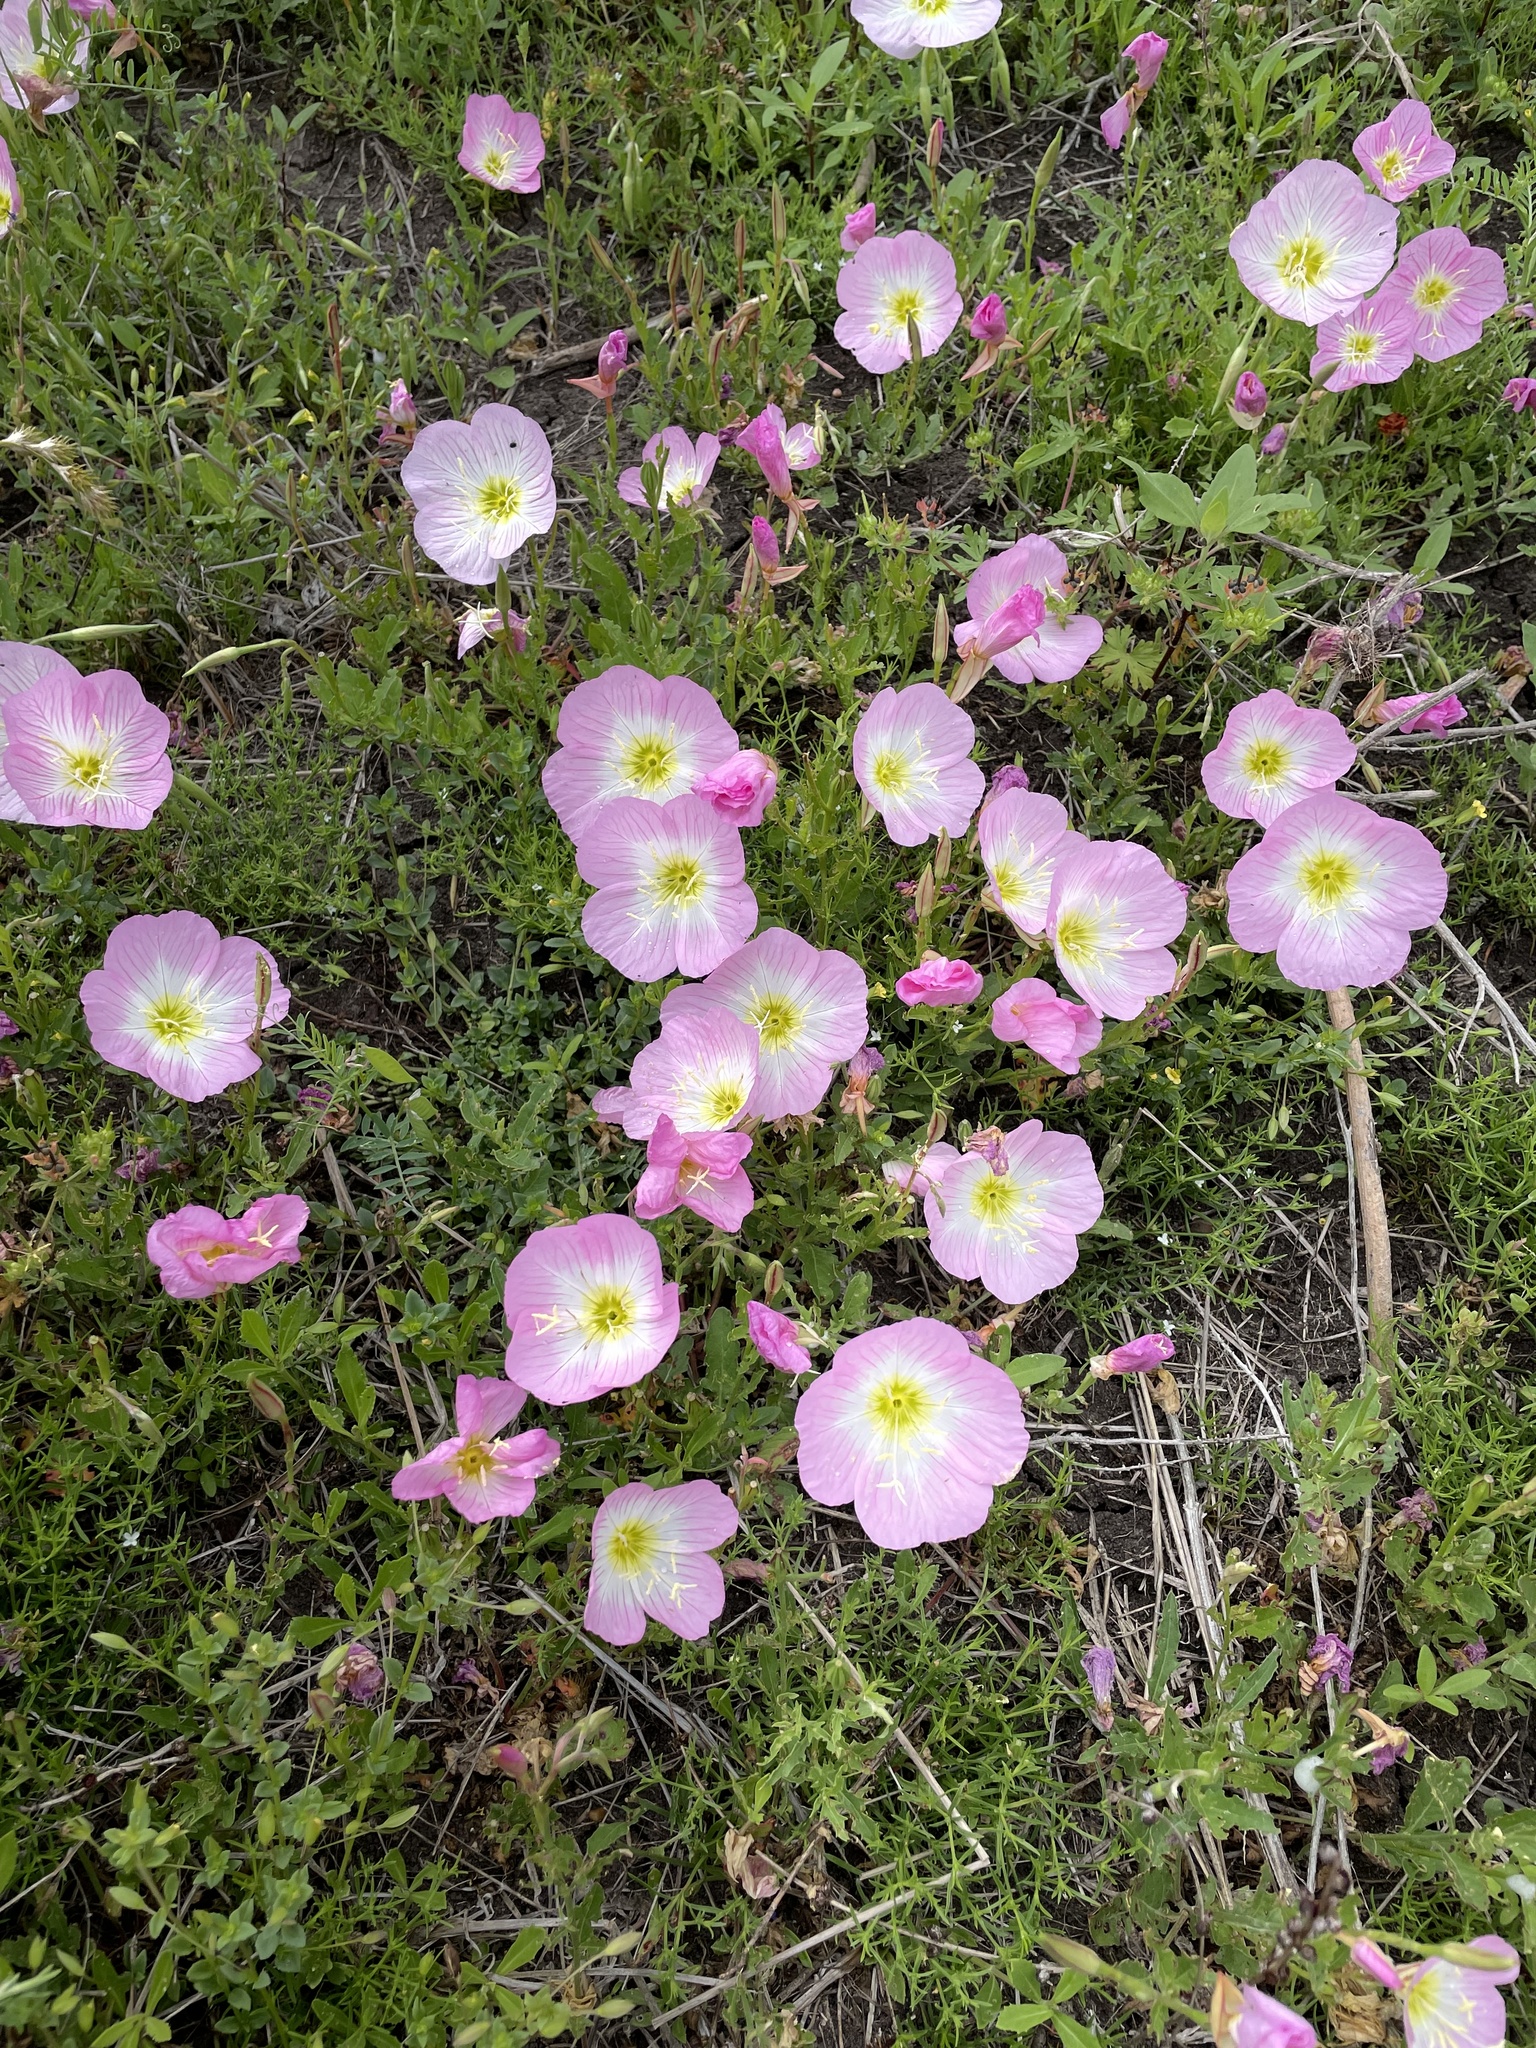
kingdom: Plantae
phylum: Tracheophyta
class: Magnoliopsida
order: Myrtales
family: Onagraceae
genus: Oenothera
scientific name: Oenothera speciosa
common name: White evening-primrose
